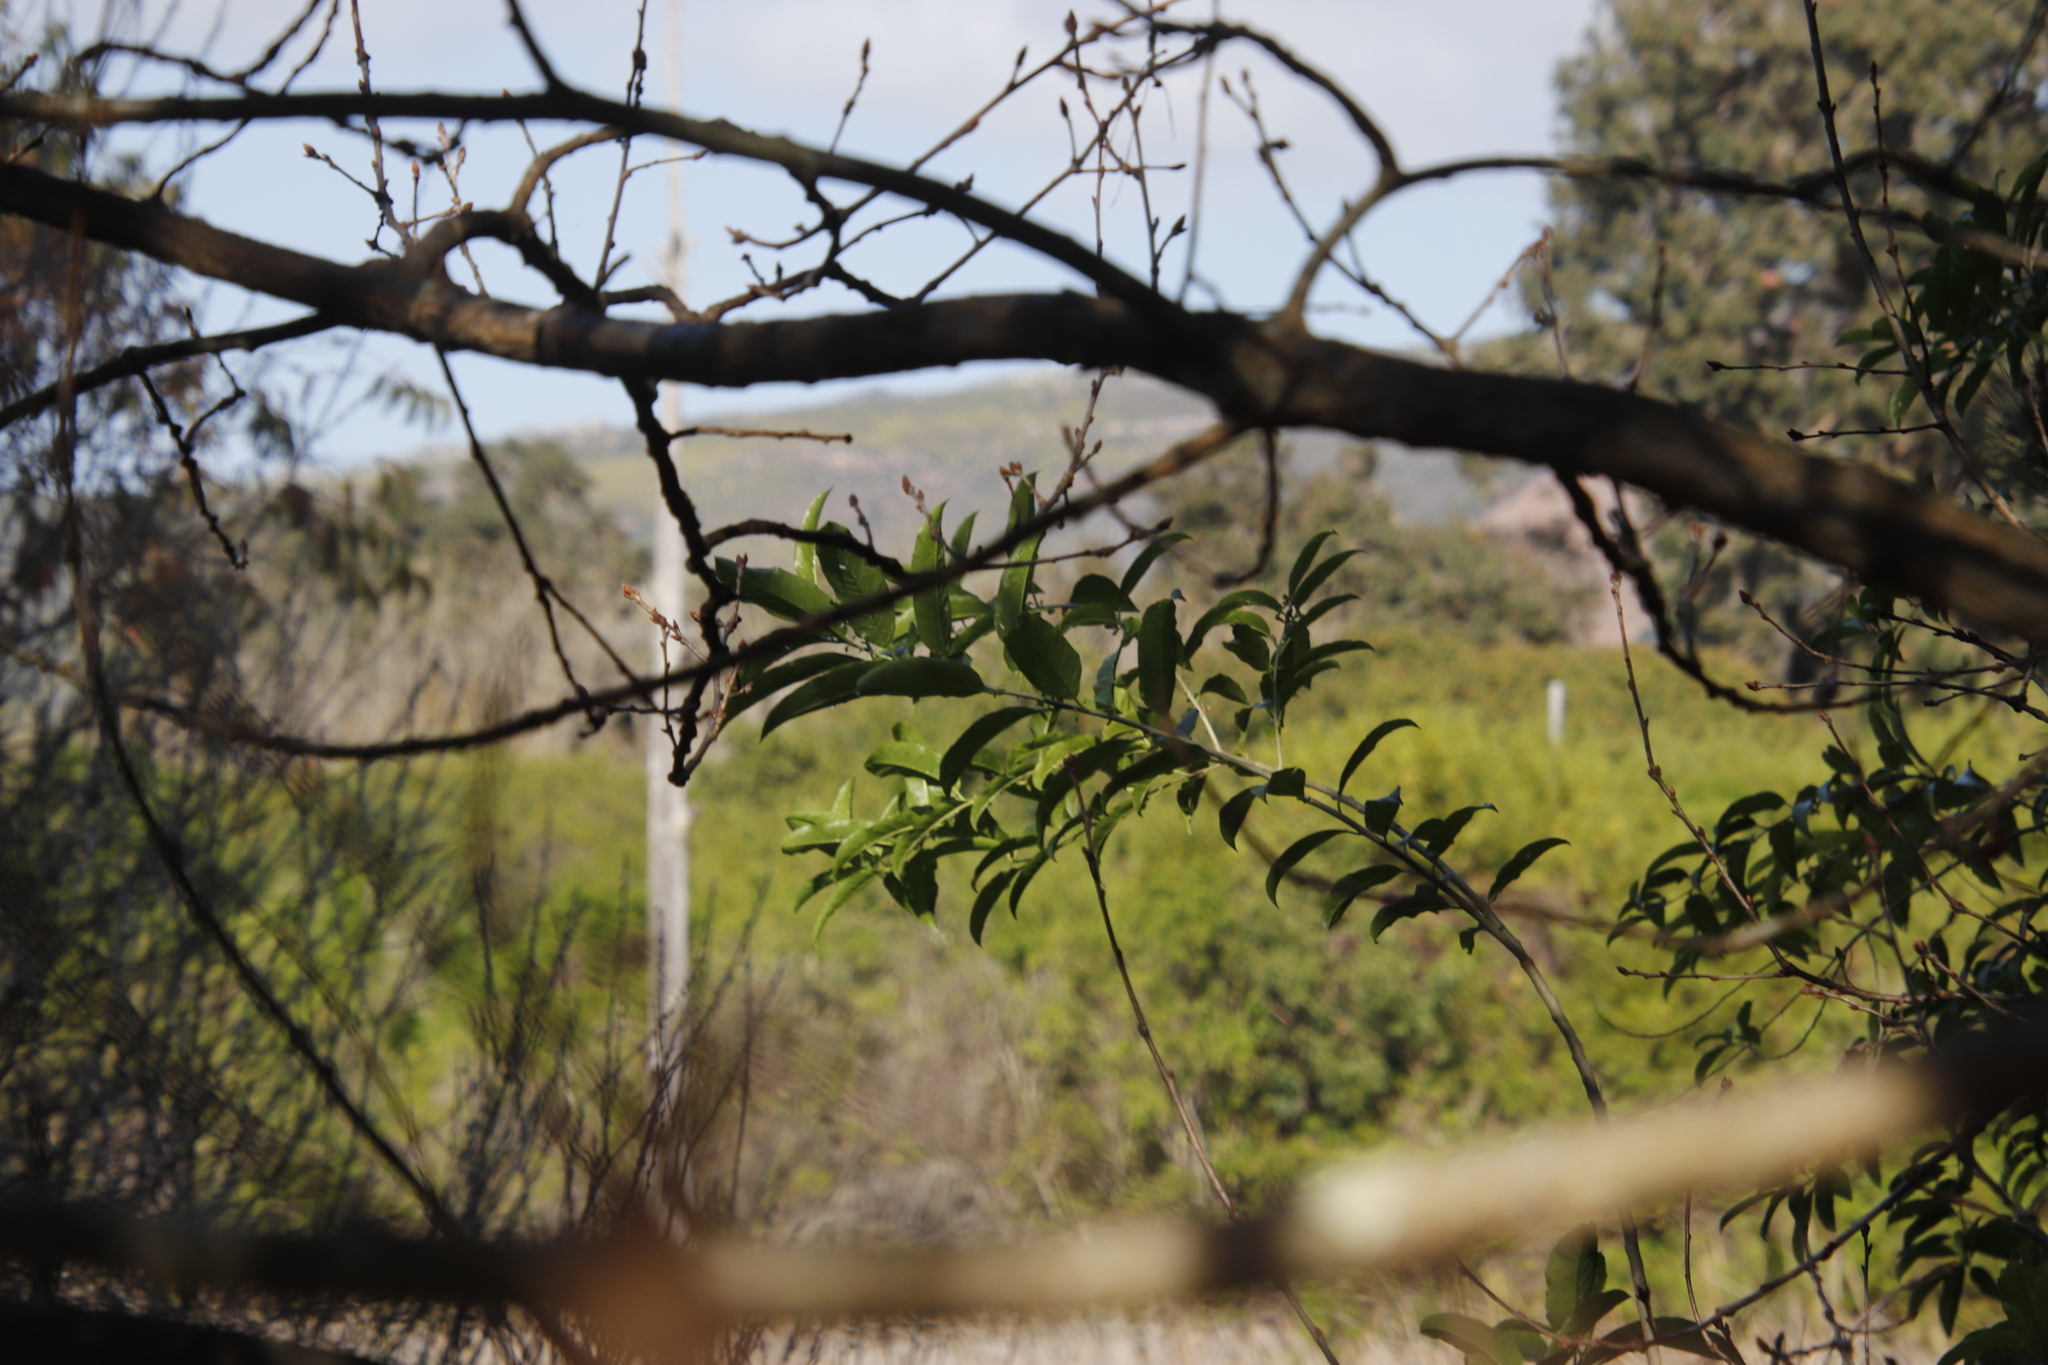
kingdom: Plantae
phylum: Tracheophyta
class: Magnoliopsida
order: Solanales
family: Solanaceae
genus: Cestrum
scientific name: Cestrum laevigatum
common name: Inkberry
